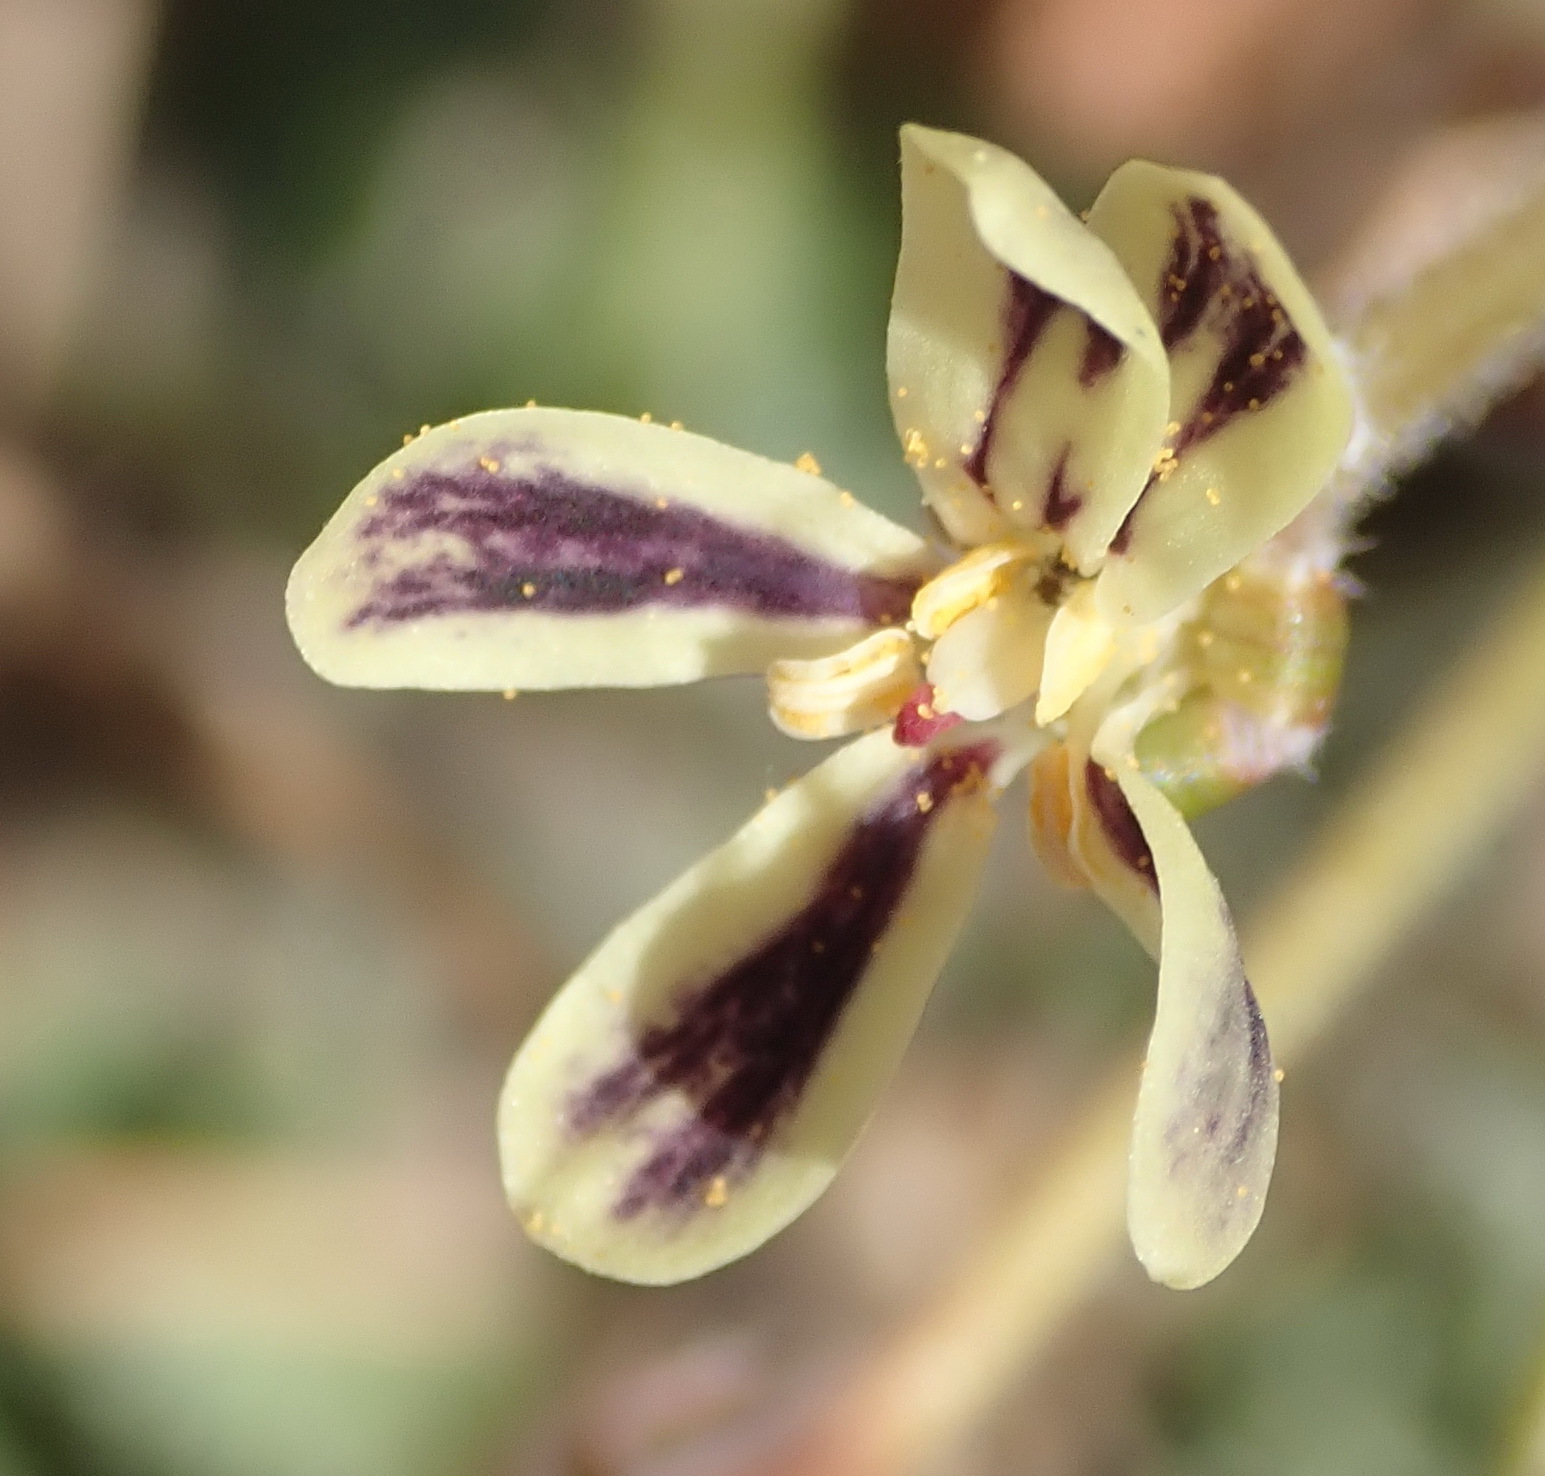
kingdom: Plantae
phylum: Tracheophyta
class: Magnoliopsida
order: Geraniales
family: Geraniaceae
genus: Pelargonium
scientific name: Pelargonium lobatum
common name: Vine-leaf pelargonium
